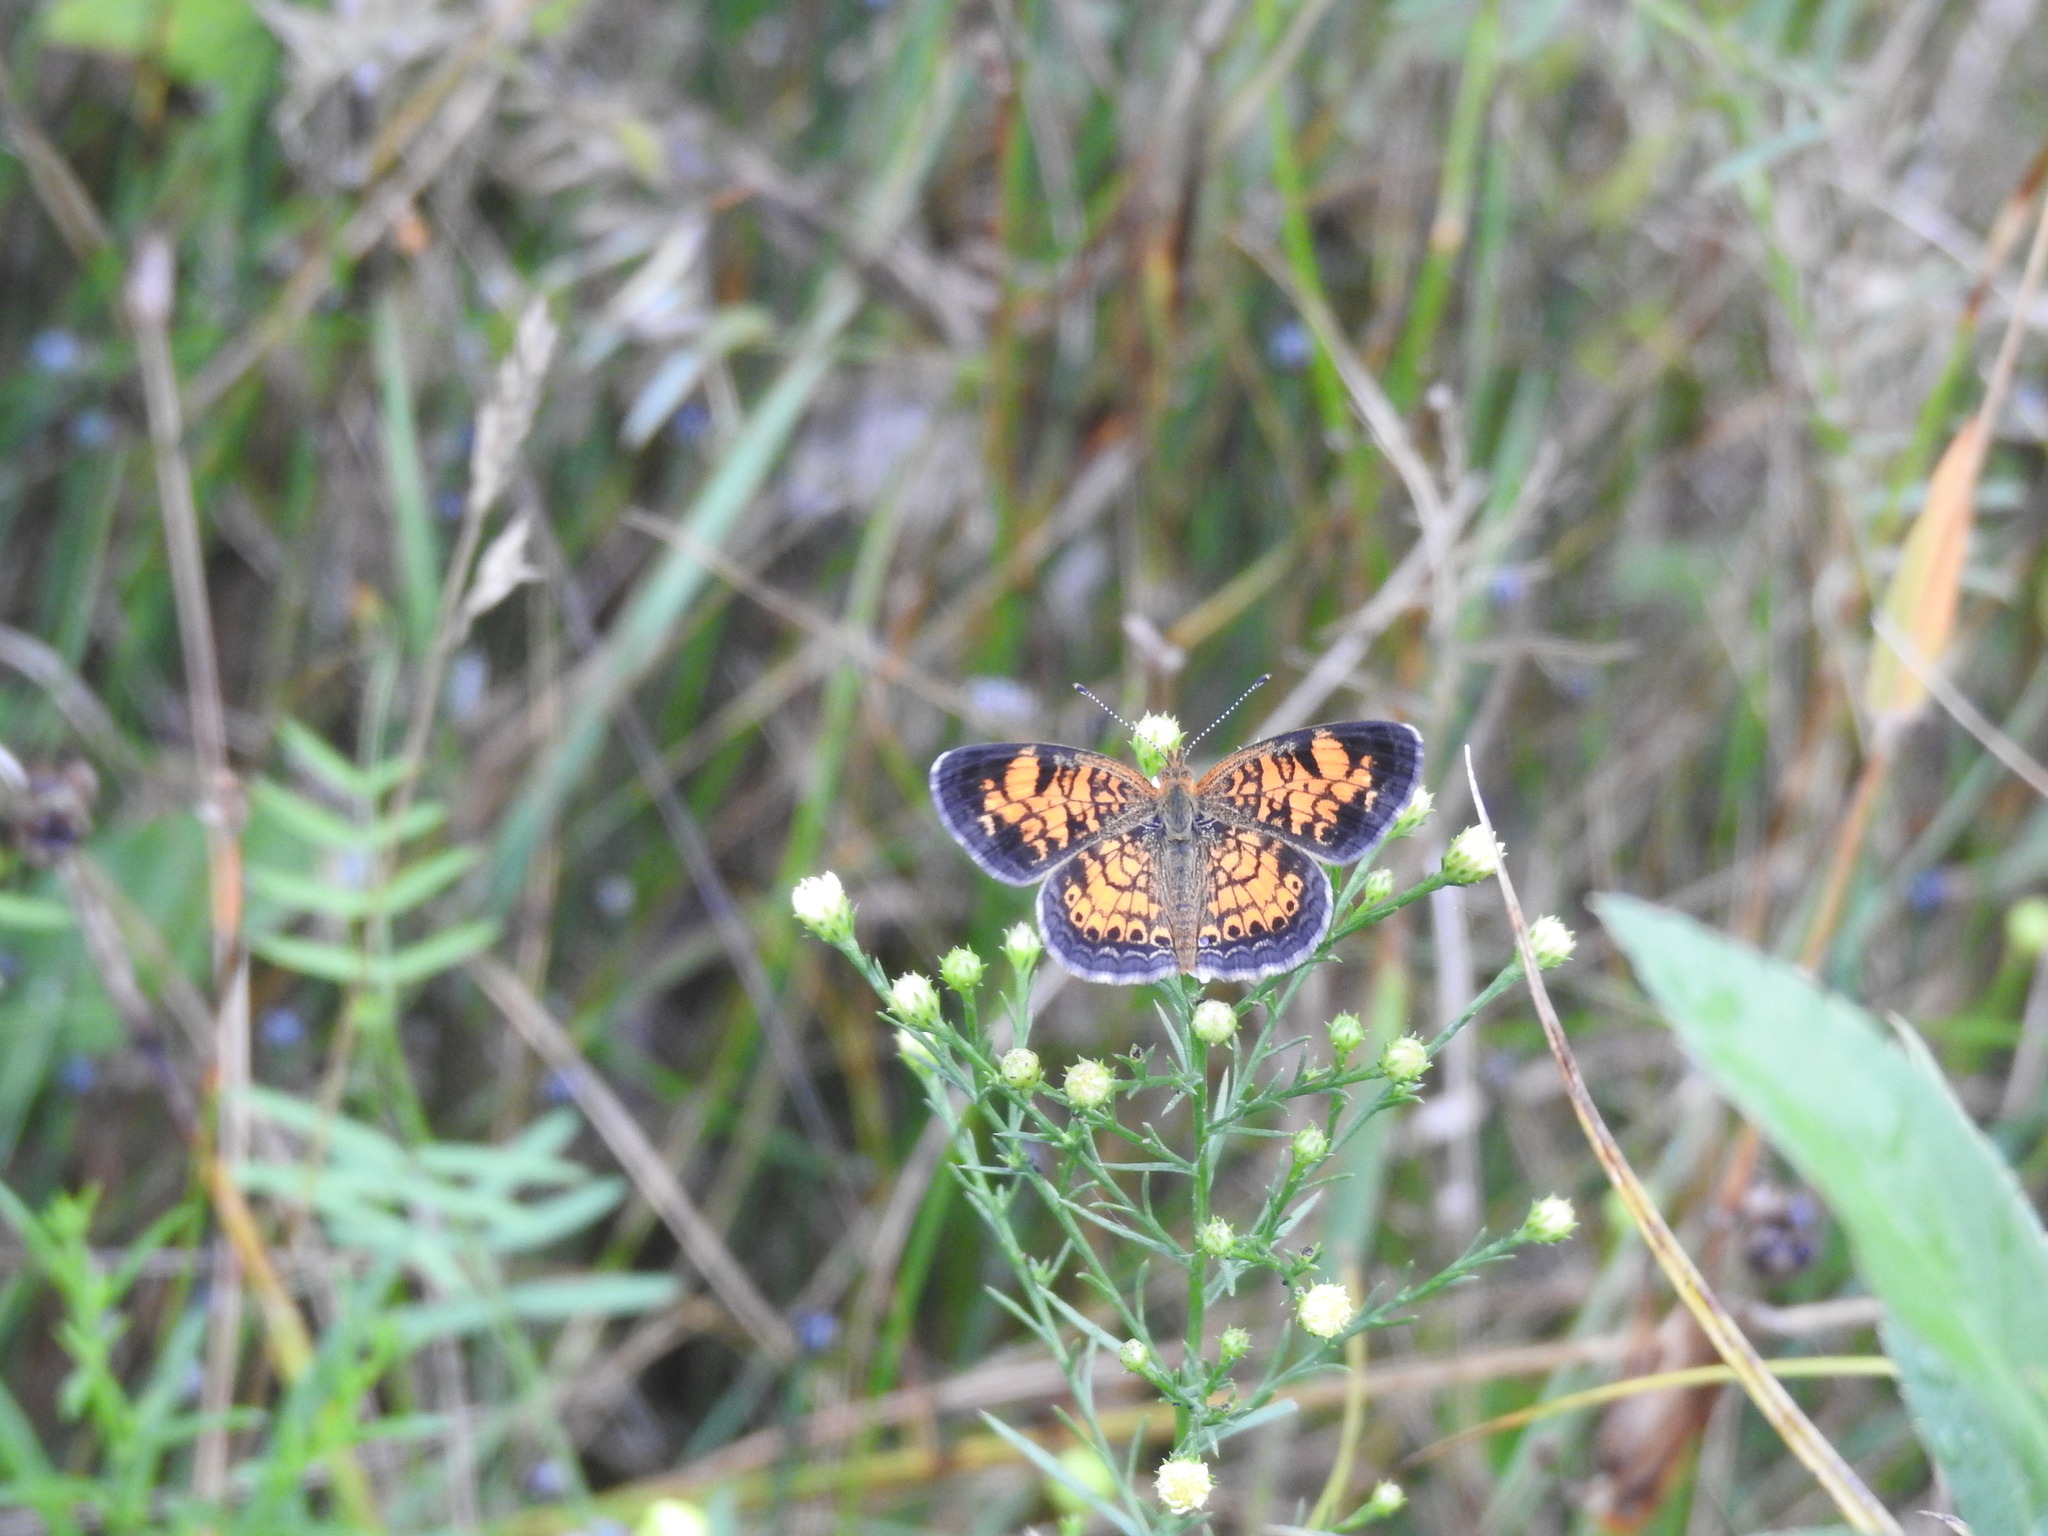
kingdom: Animalia
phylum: Arthropoda
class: Insecta
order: Lepidoptera
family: Nymphalidae
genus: Phyciodes
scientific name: Phyciodes tharos
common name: Pearl crescent
